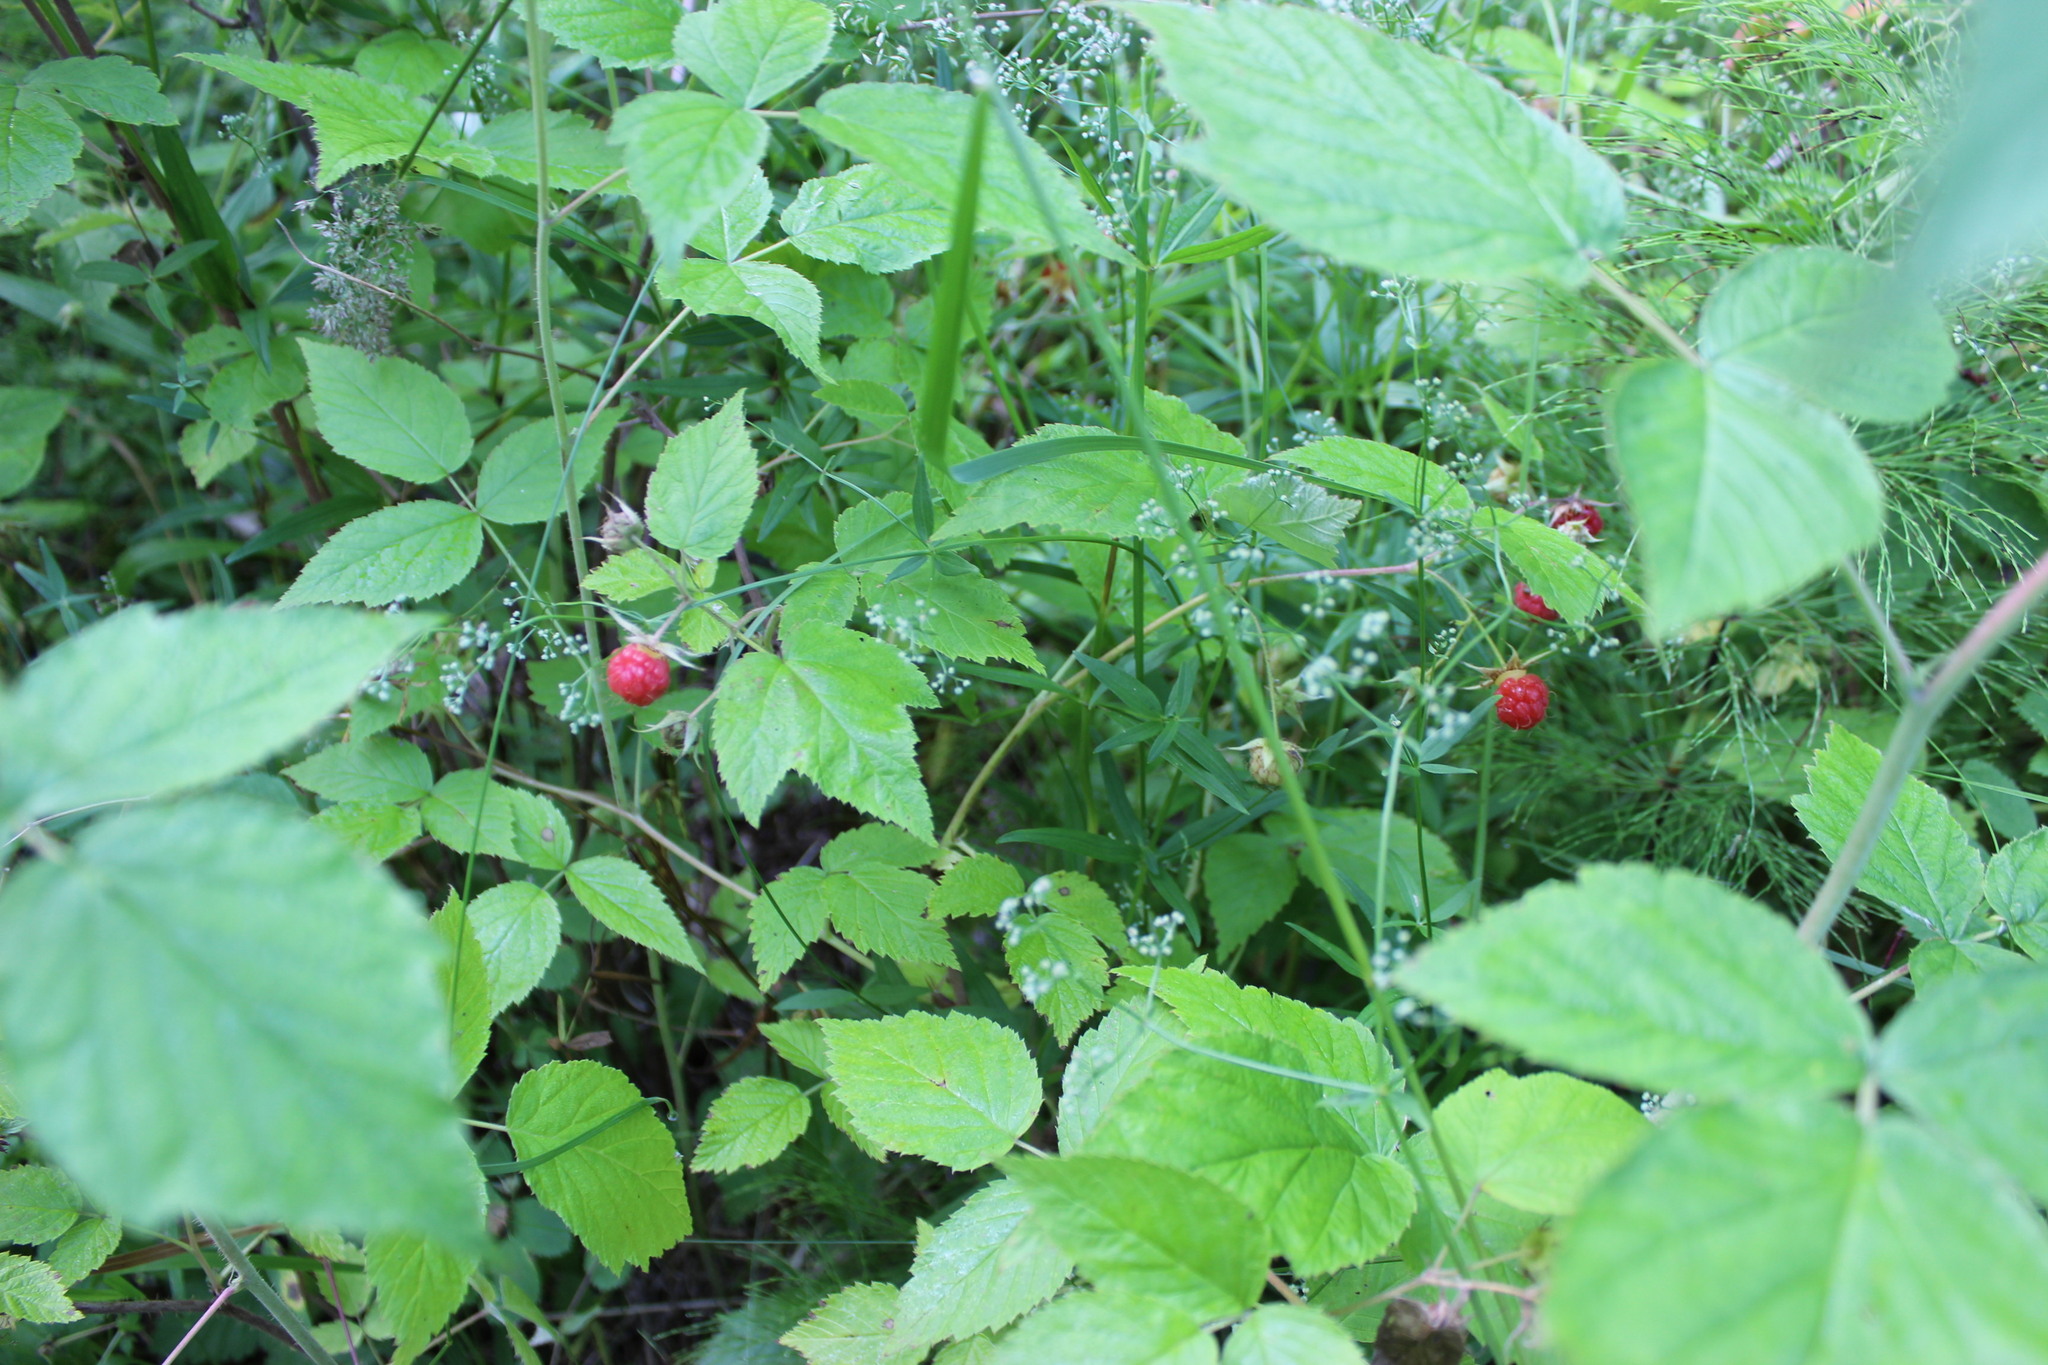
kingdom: Plantae
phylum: Tracheophyta
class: Magnoliopsida
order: Rosales
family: Rosaceae
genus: Rubus
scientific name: Rubus idaeus
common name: Raspberry
